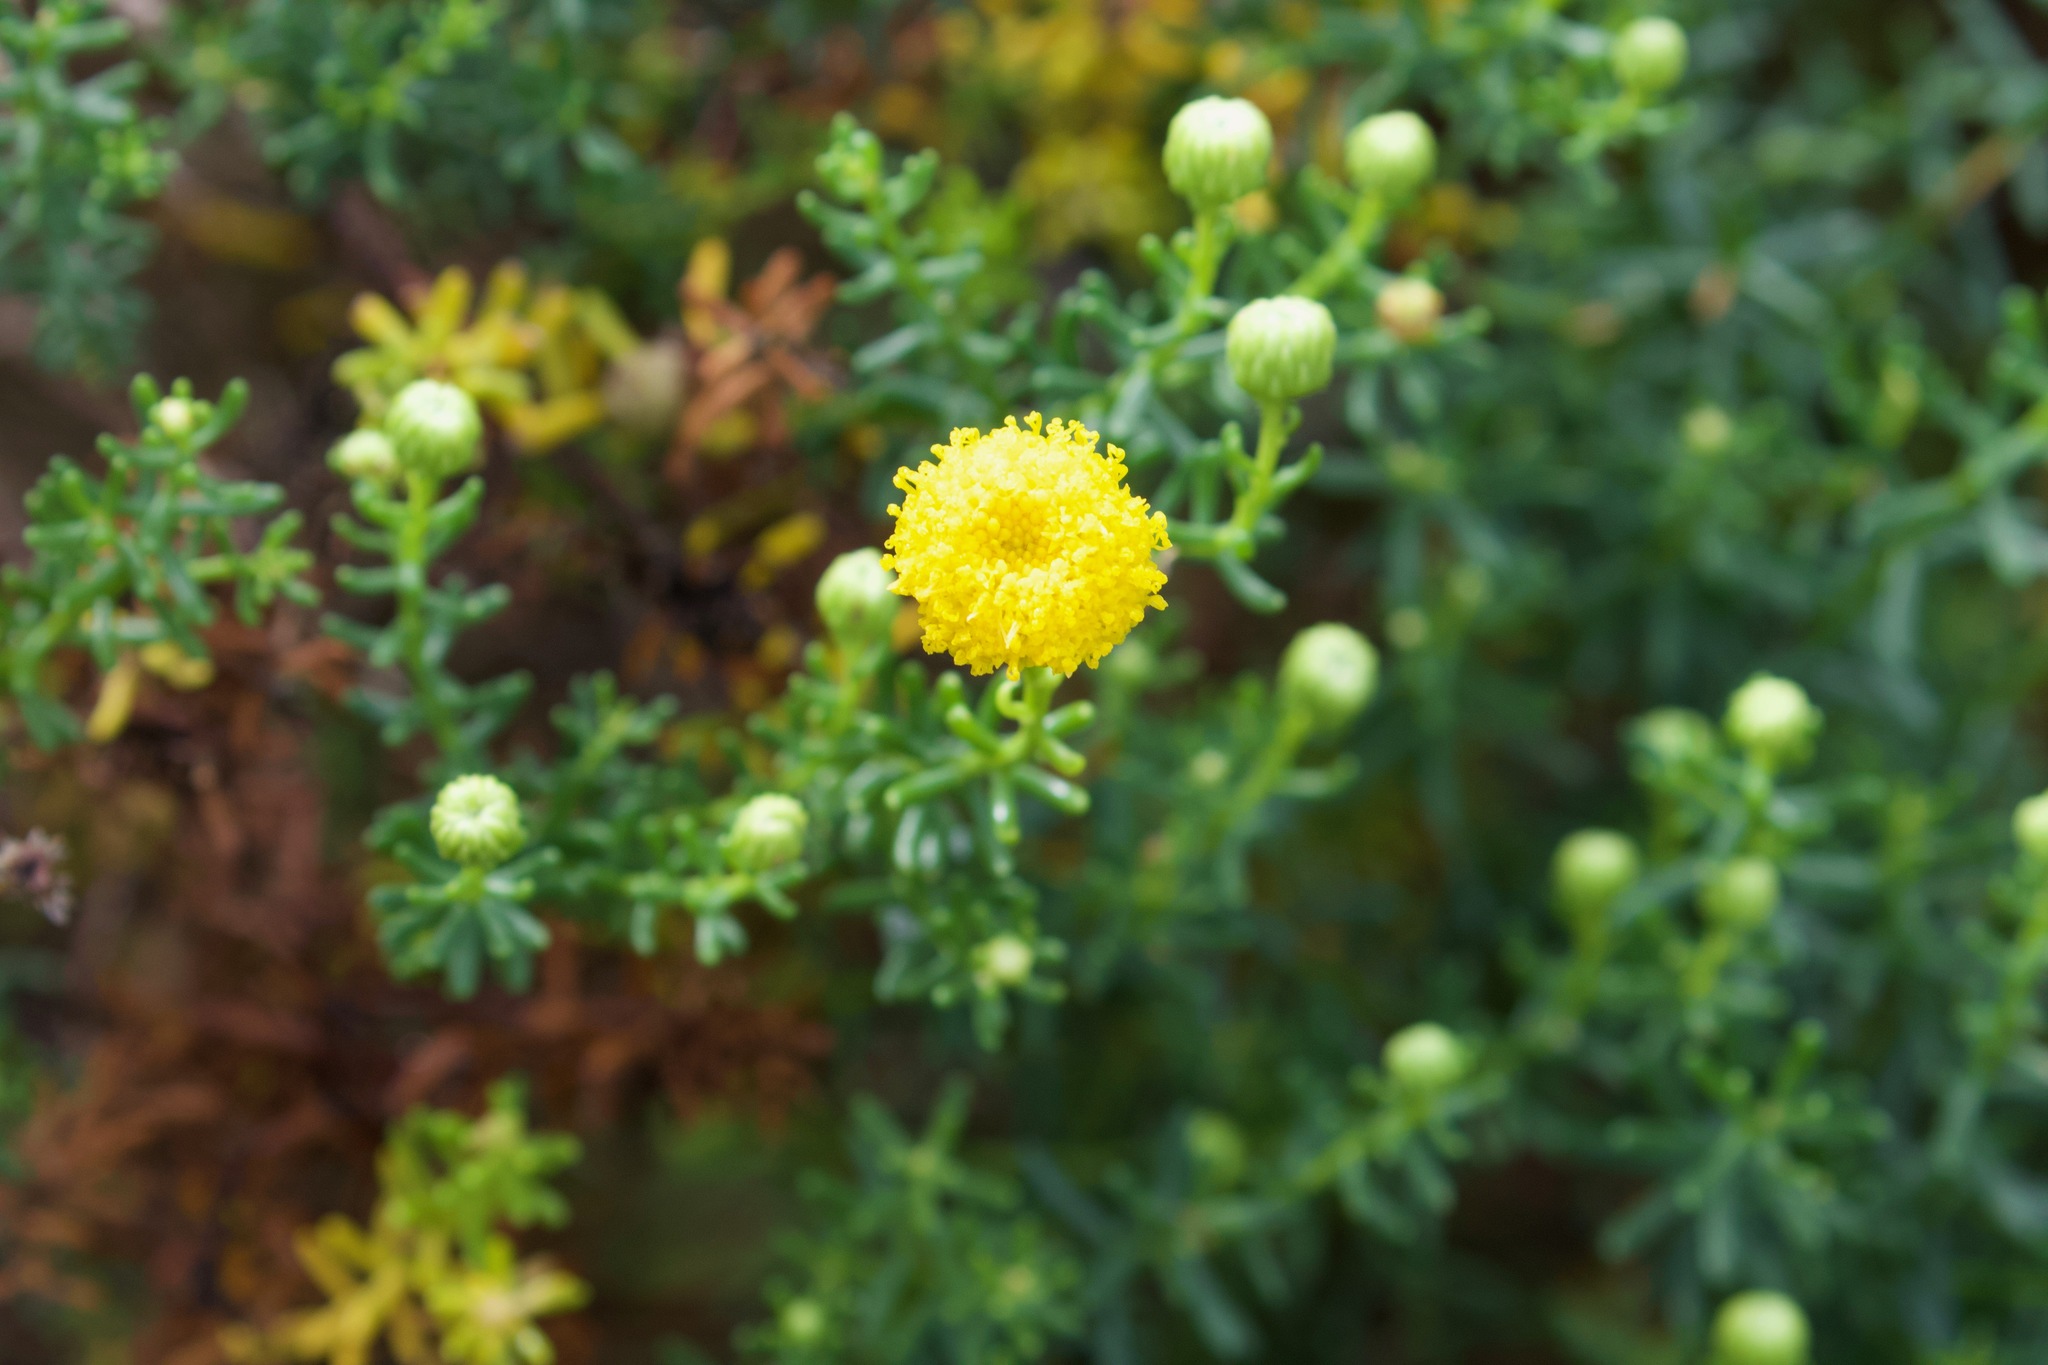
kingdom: Plantae
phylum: Tracheophyta
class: Magnoliopsida
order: Asterales
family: Asteraceae
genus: Chrysocoma
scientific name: Chrysocoma cernua
